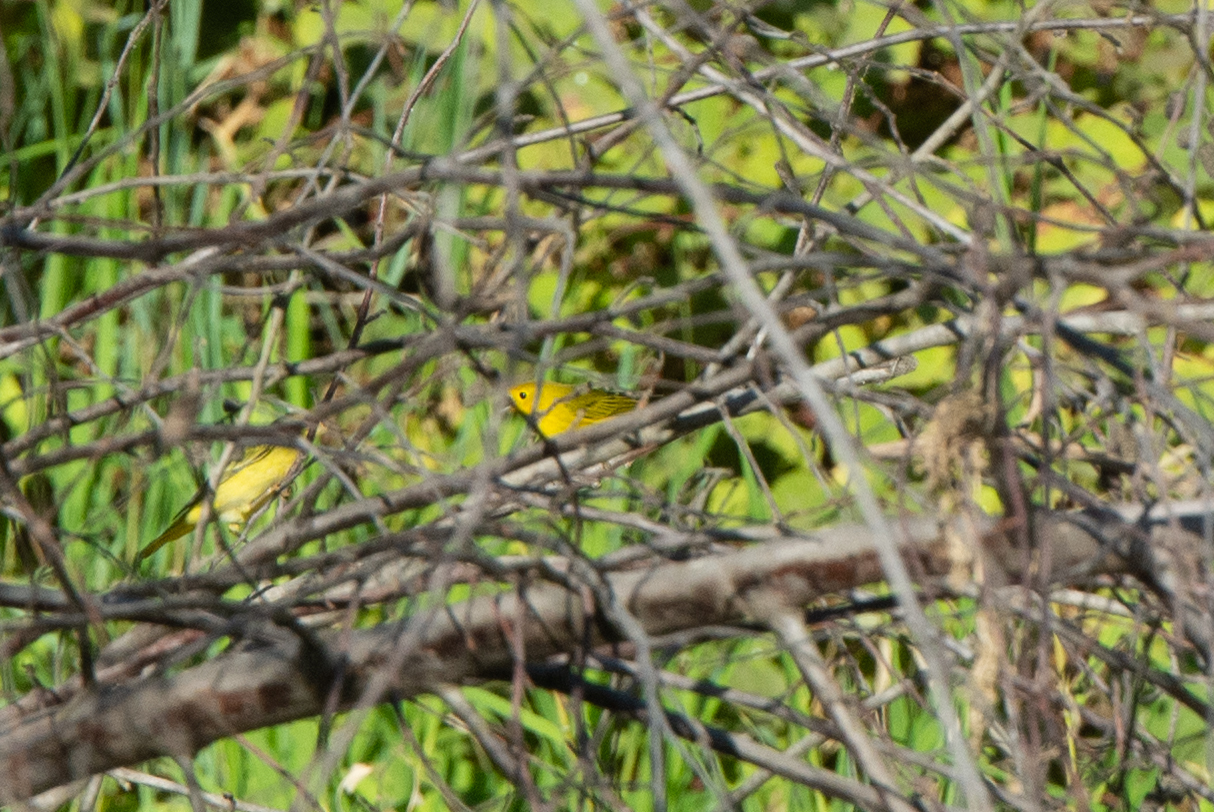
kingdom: Animalia
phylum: Chordata
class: Aves
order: Passeriformes
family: Parulidae
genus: Setophaga
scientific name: Setophaga petechia
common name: Yellow warbler
